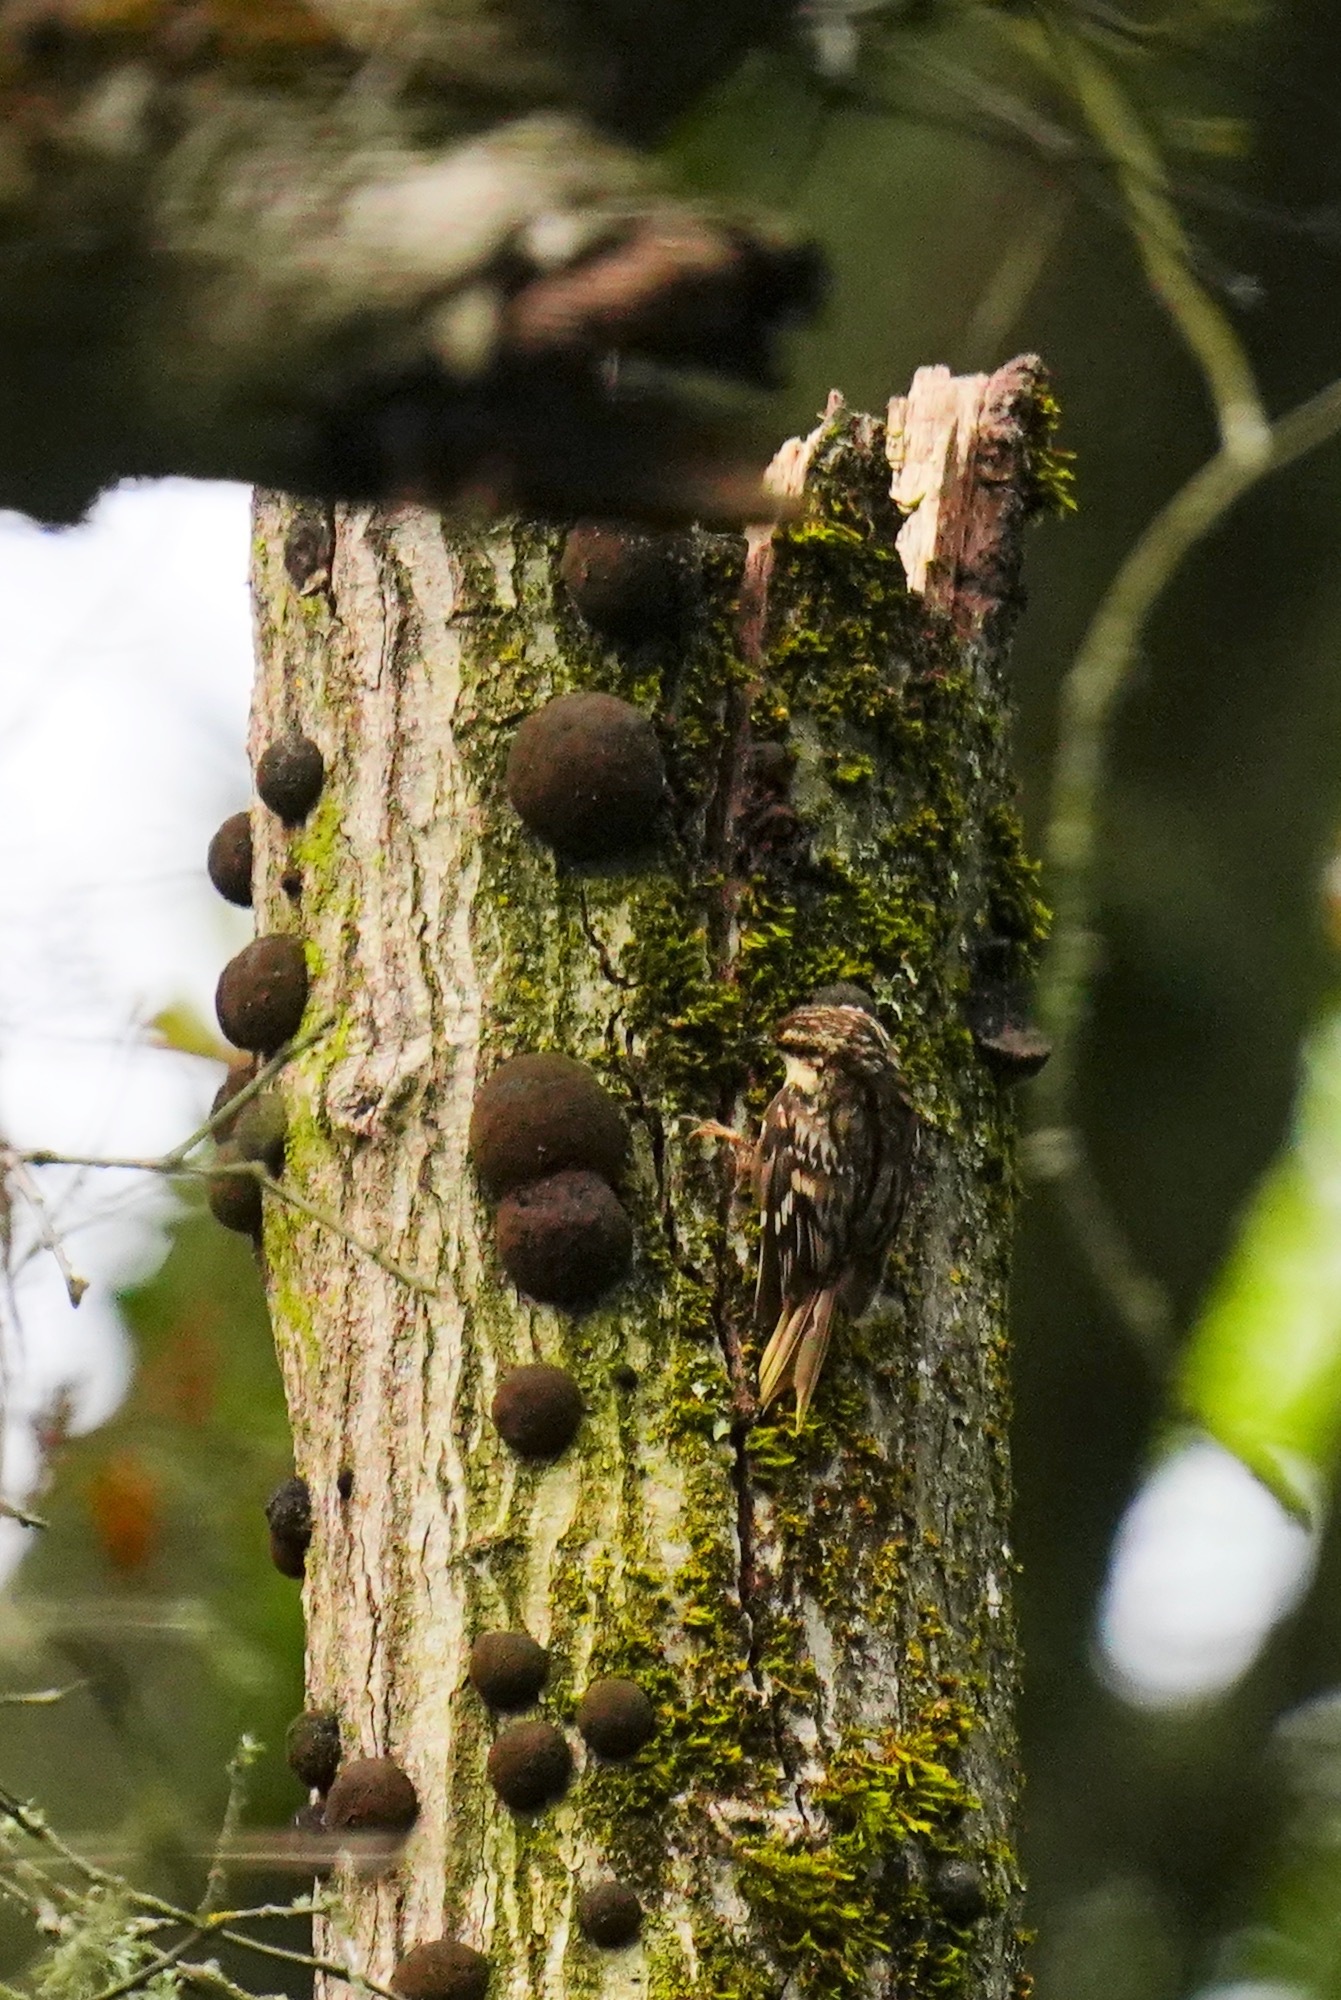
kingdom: Animalia
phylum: Chordata
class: Aves
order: Passeriformes
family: Certhiidae
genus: Certhia
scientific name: Certhia americana
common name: Brown creeper
